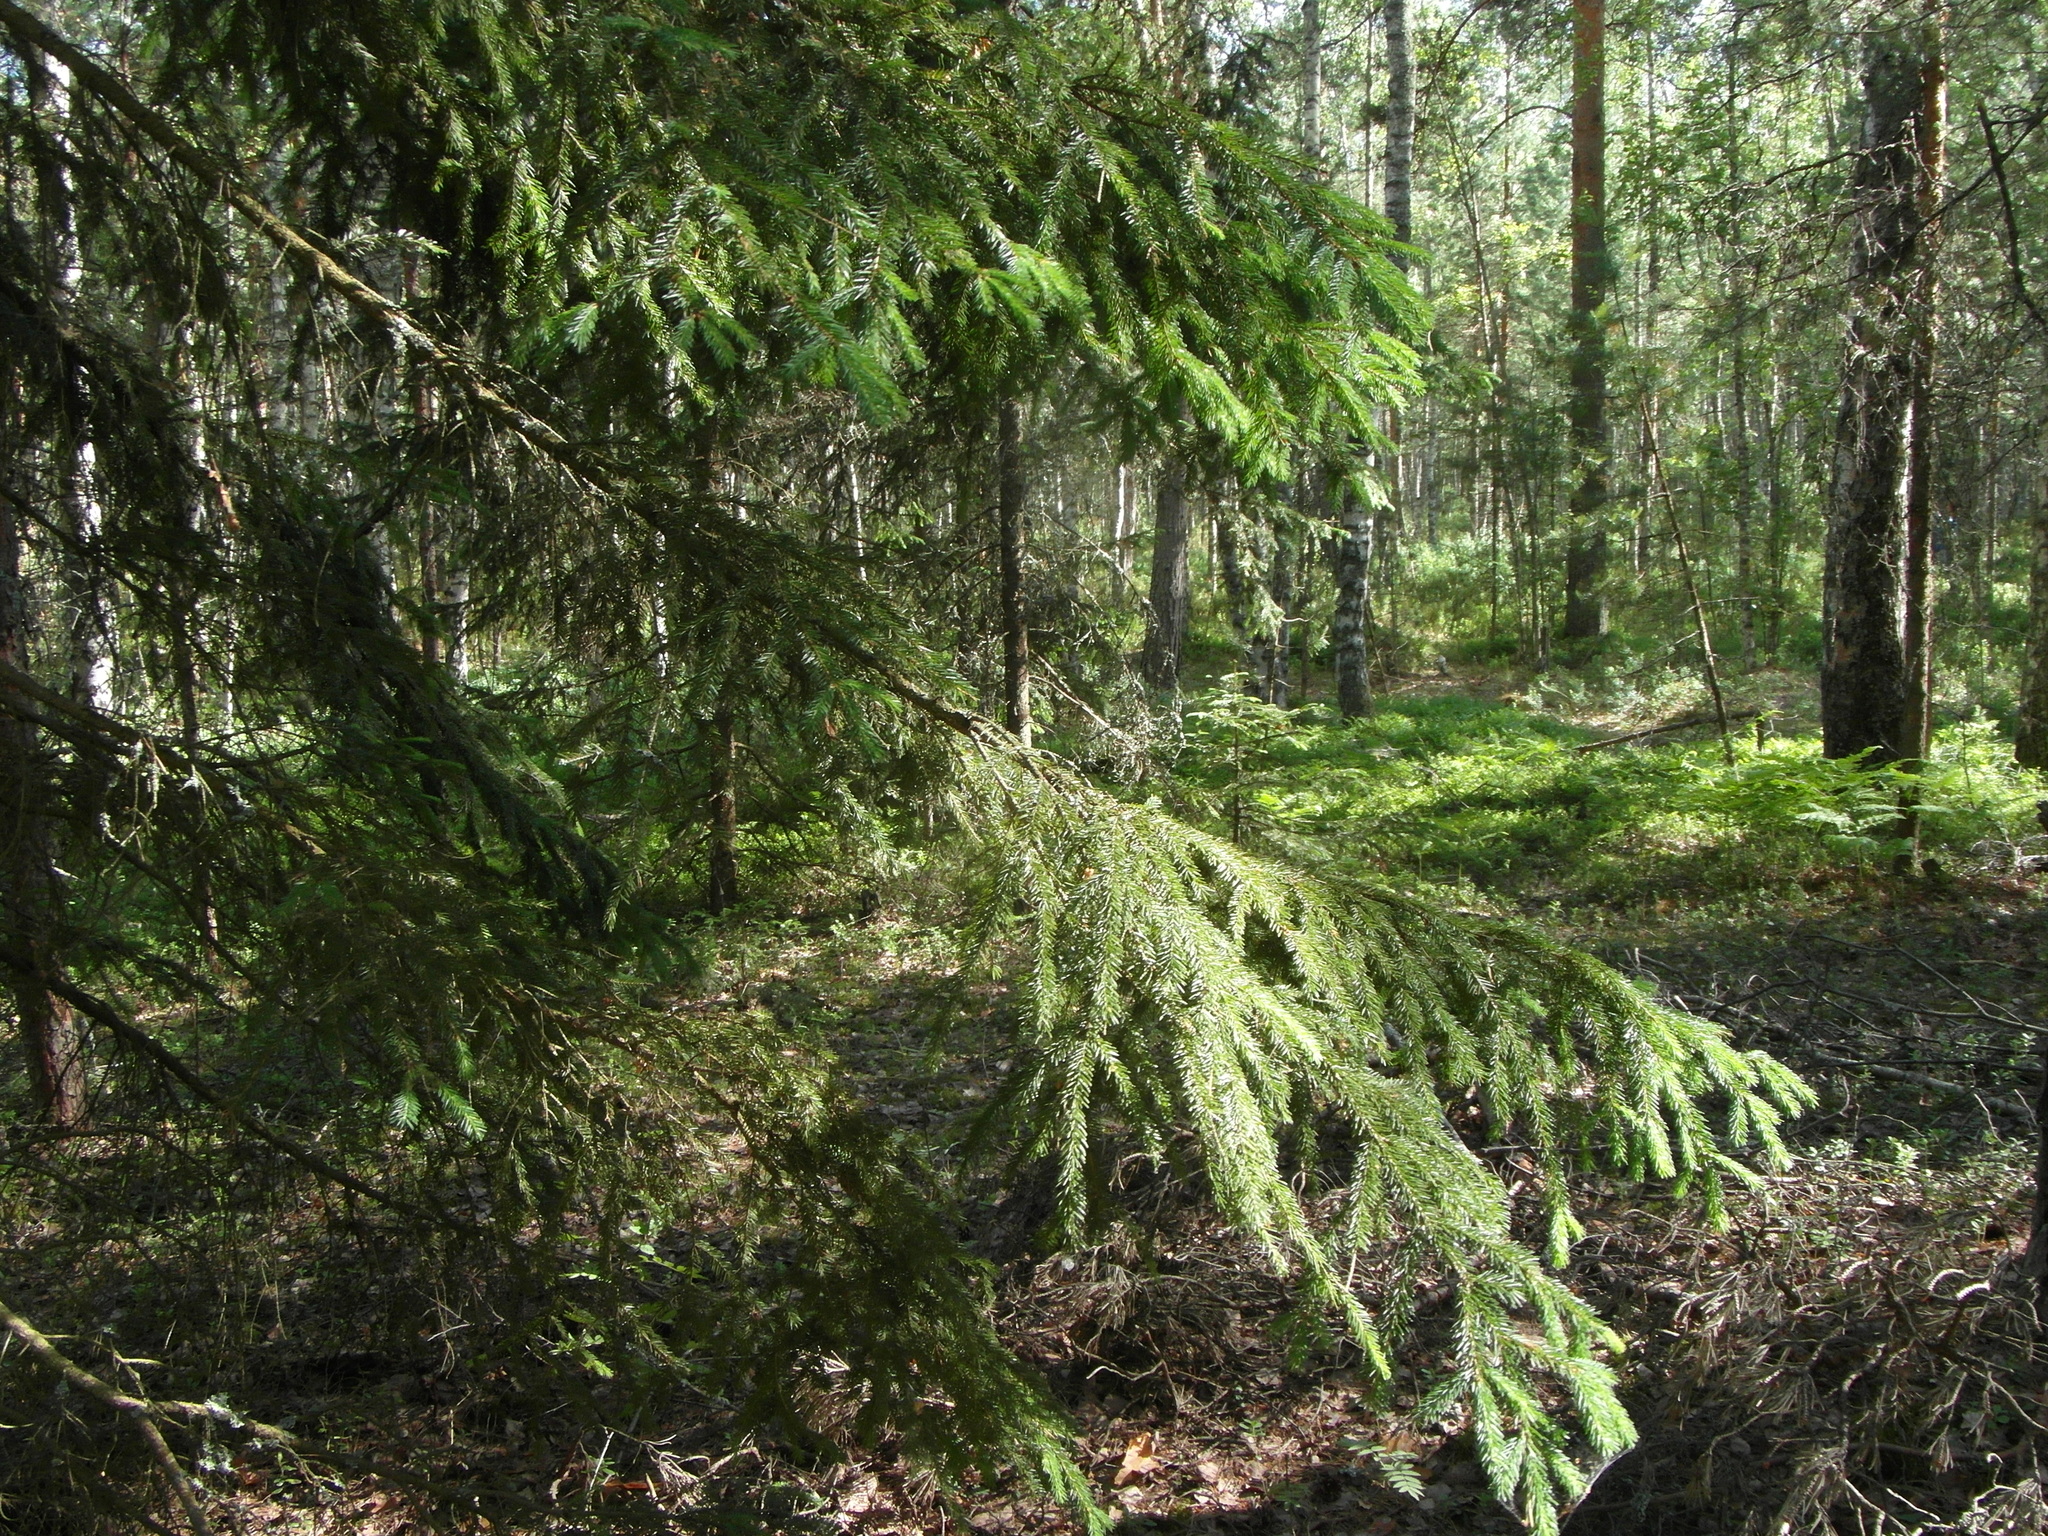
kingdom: Plantae
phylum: Tracheophyta
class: Pinopsida
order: Pinales
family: Pinaceae
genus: Picea
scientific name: Picea abies
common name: Norway spruce
